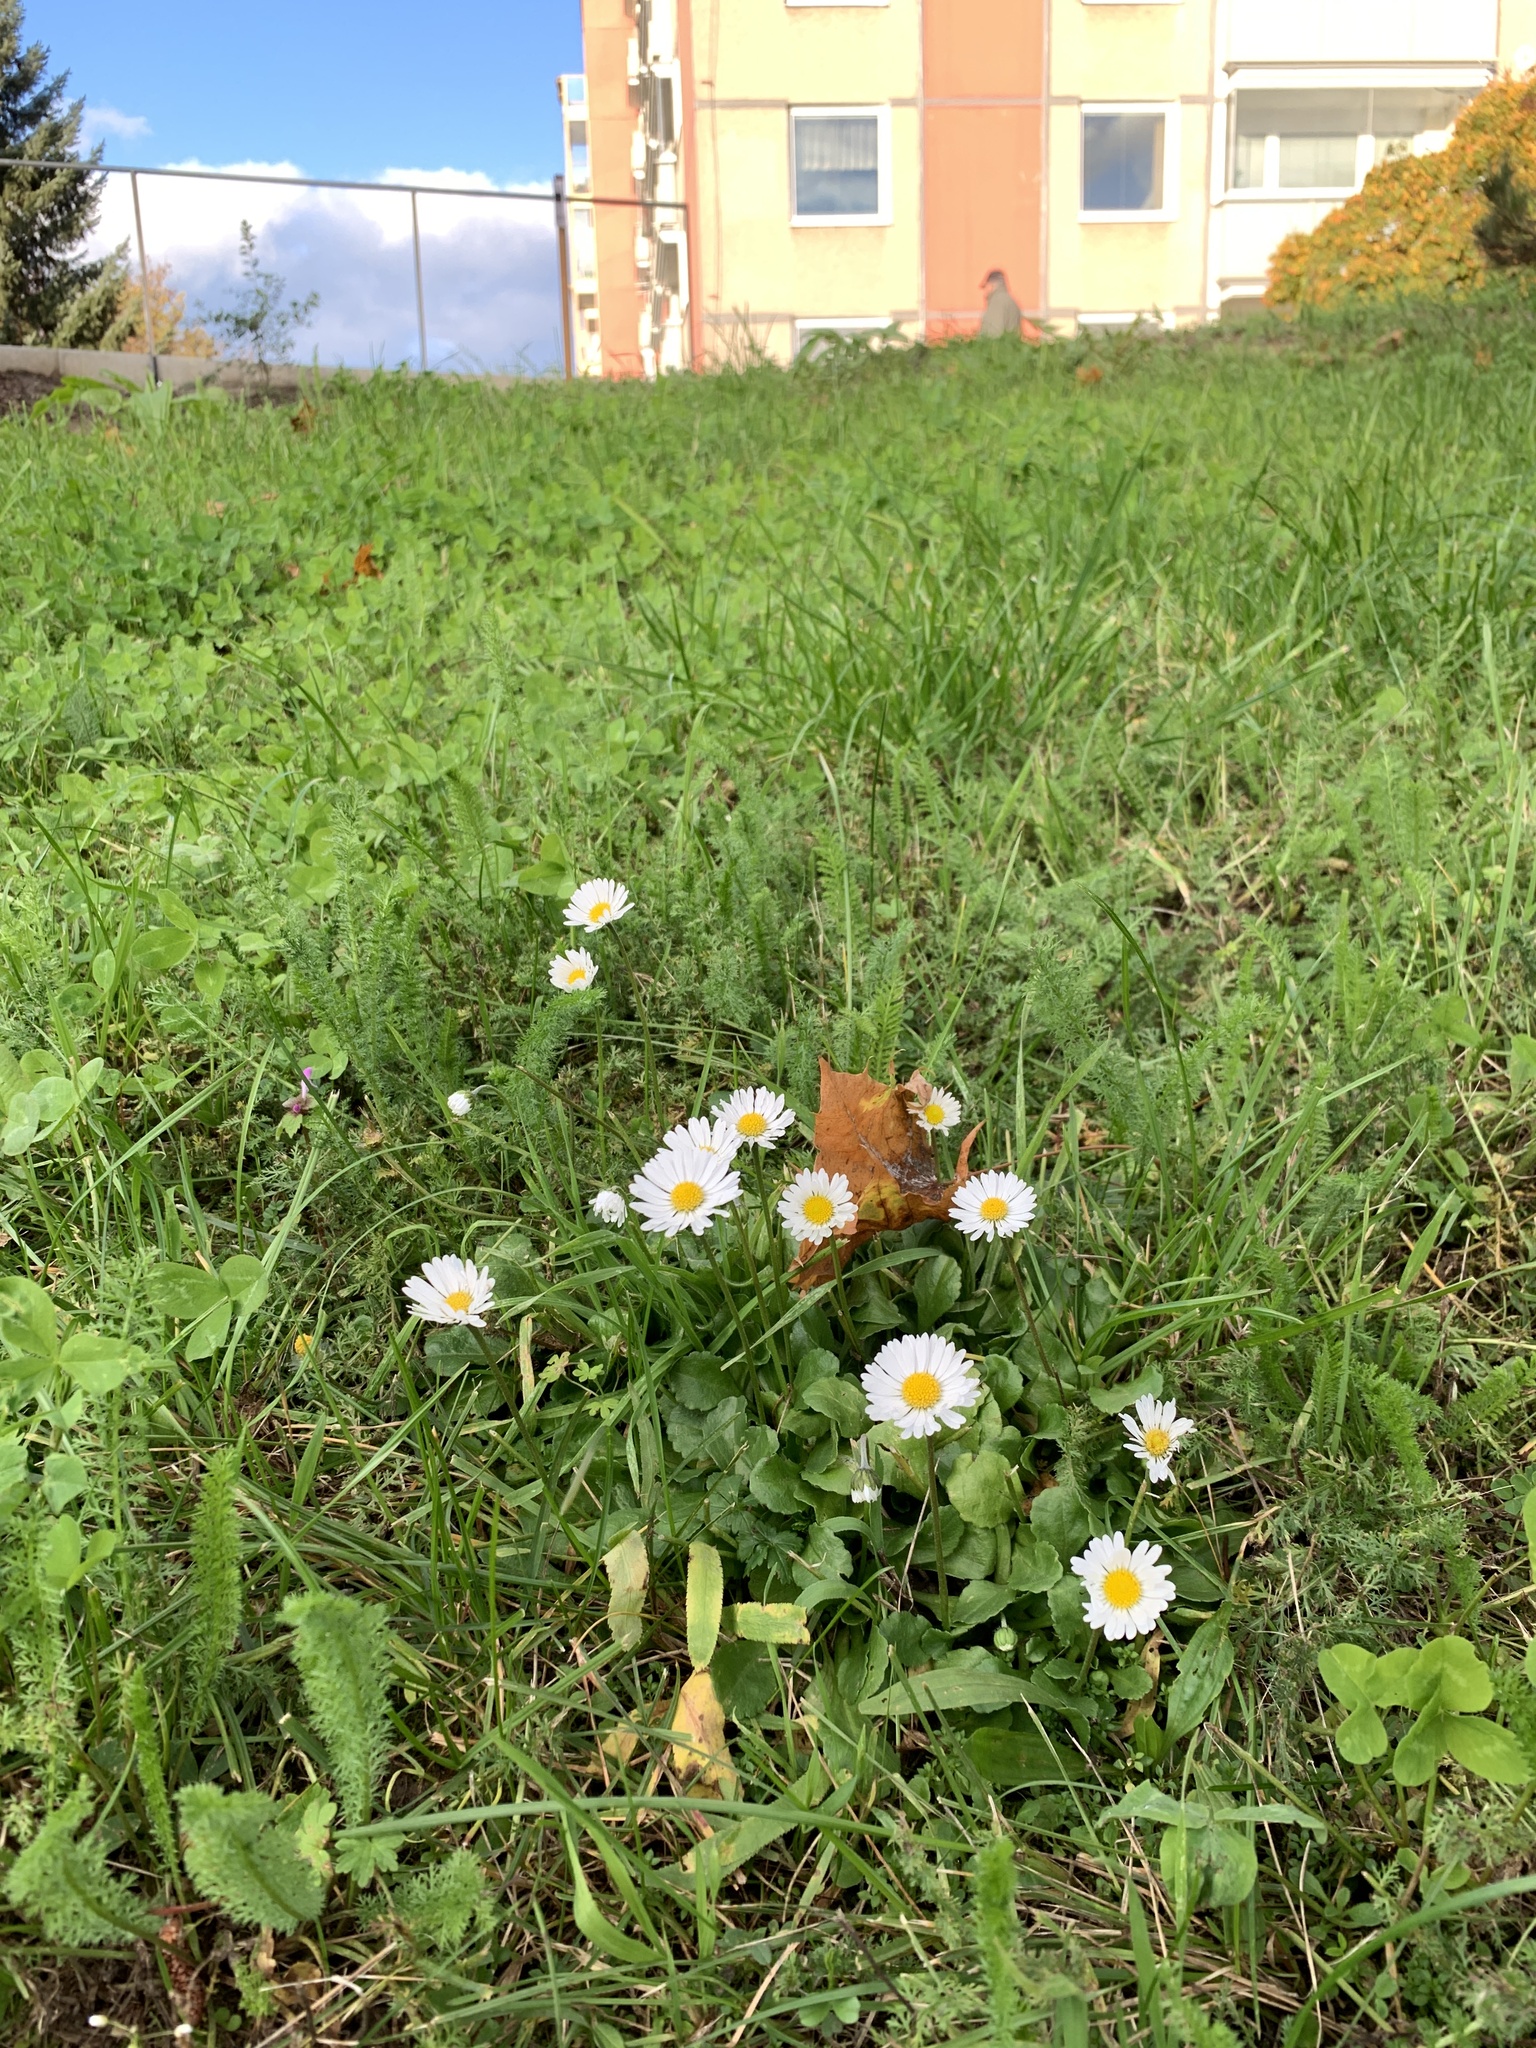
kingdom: Plantae
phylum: Tracheophyta
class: Magnoliopsida
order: Asterales
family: Asteraceae
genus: Bellis
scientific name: Bellis perennis
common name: Lawndaisy
